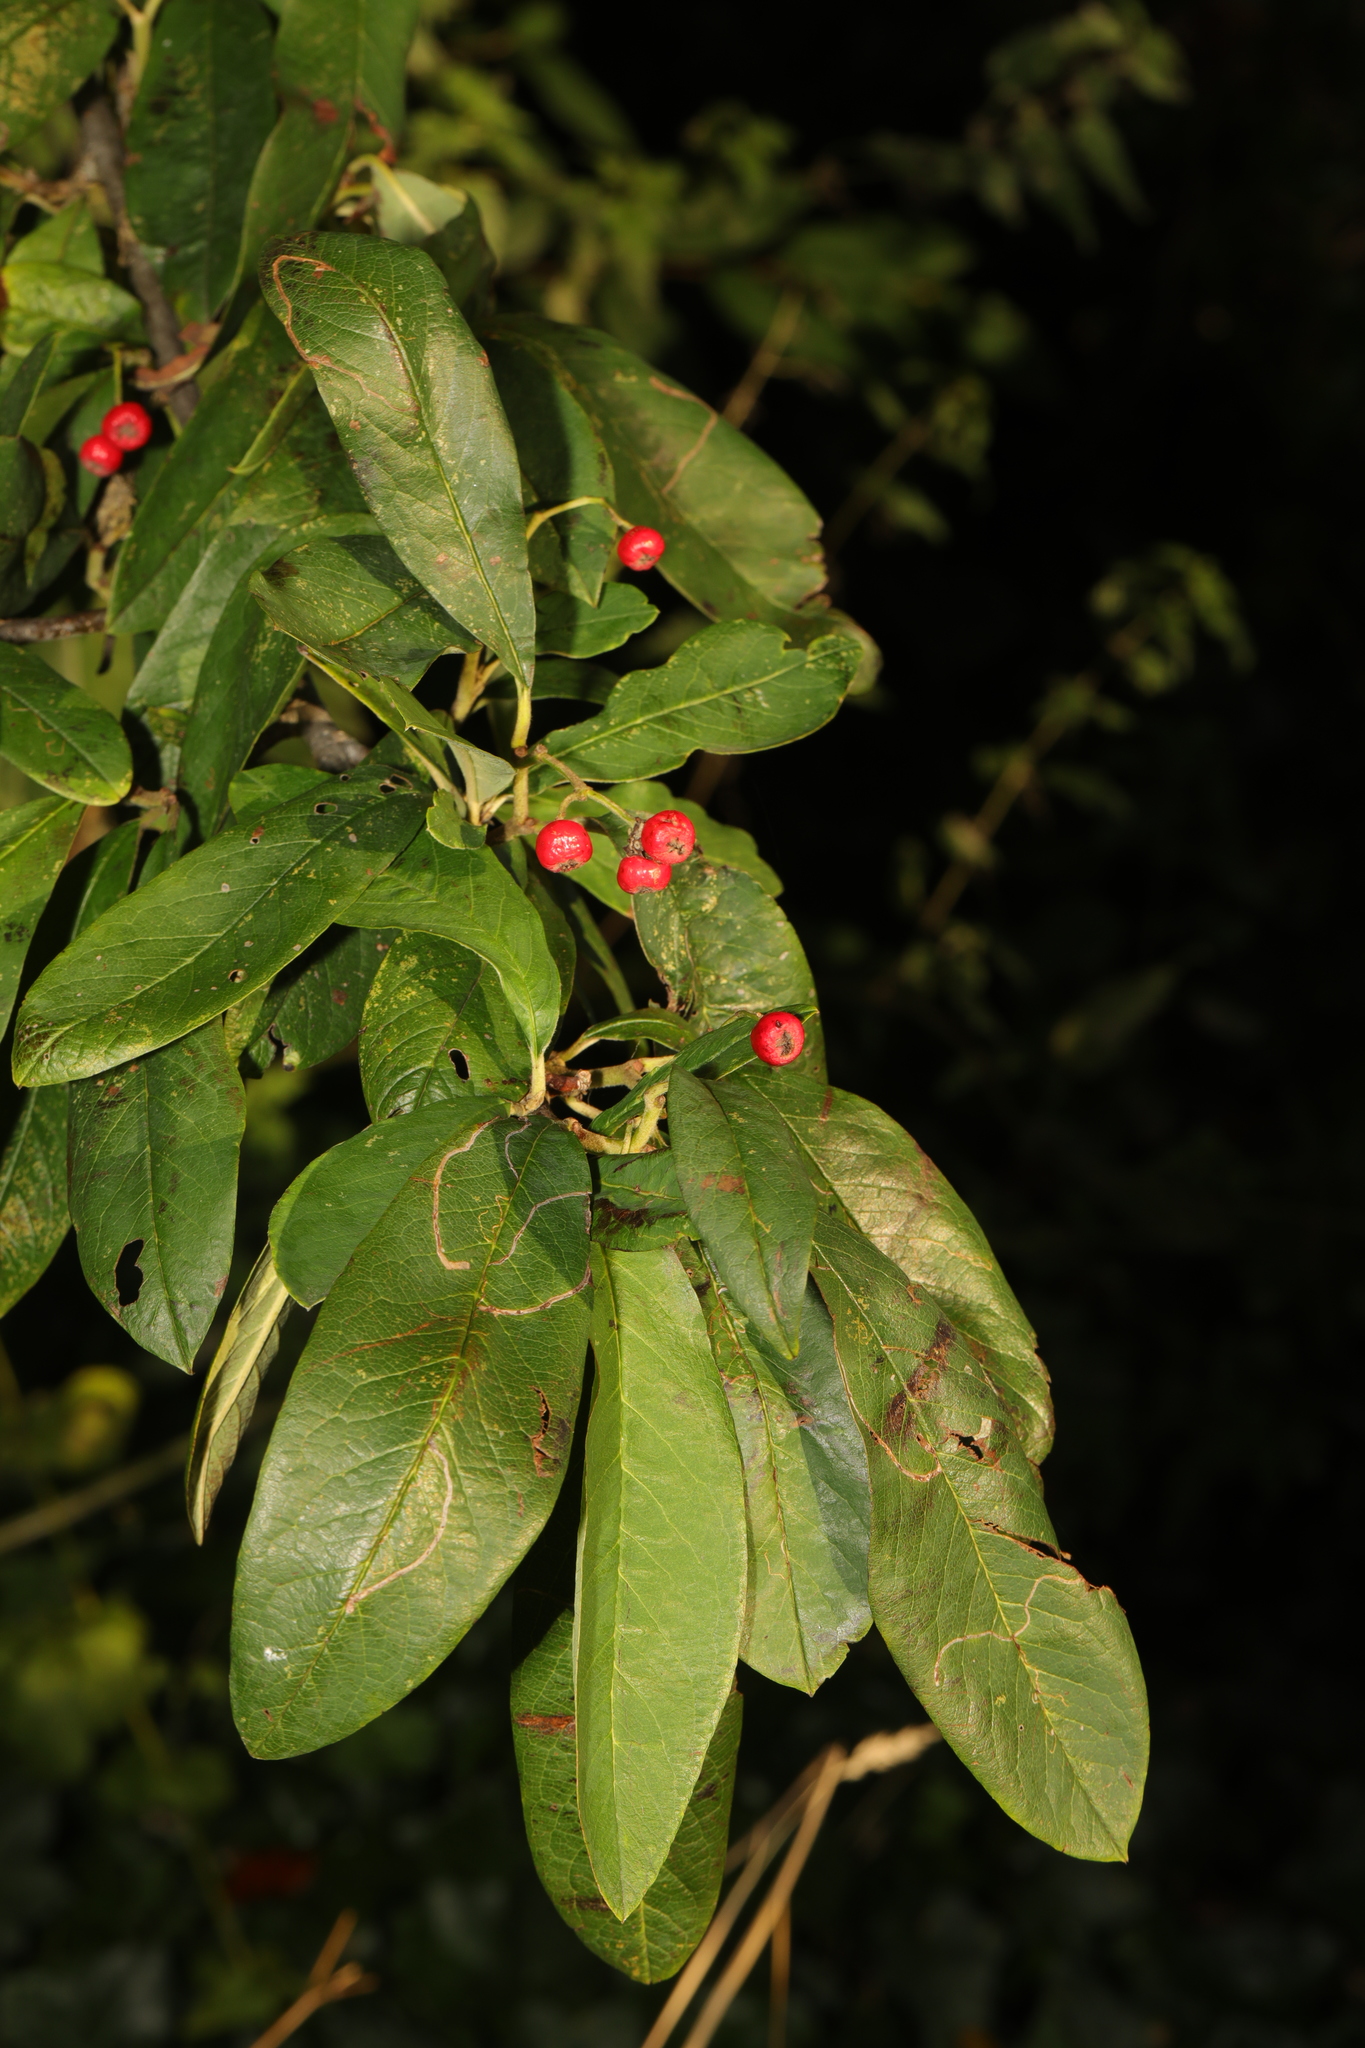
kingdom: Plantae
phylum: Tracheophyta
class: Magnoliopsida
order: Rosales
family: Rosaceae
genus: Stranvaesia
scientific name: Stranvaesia davidiana
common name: Chinese photinia
